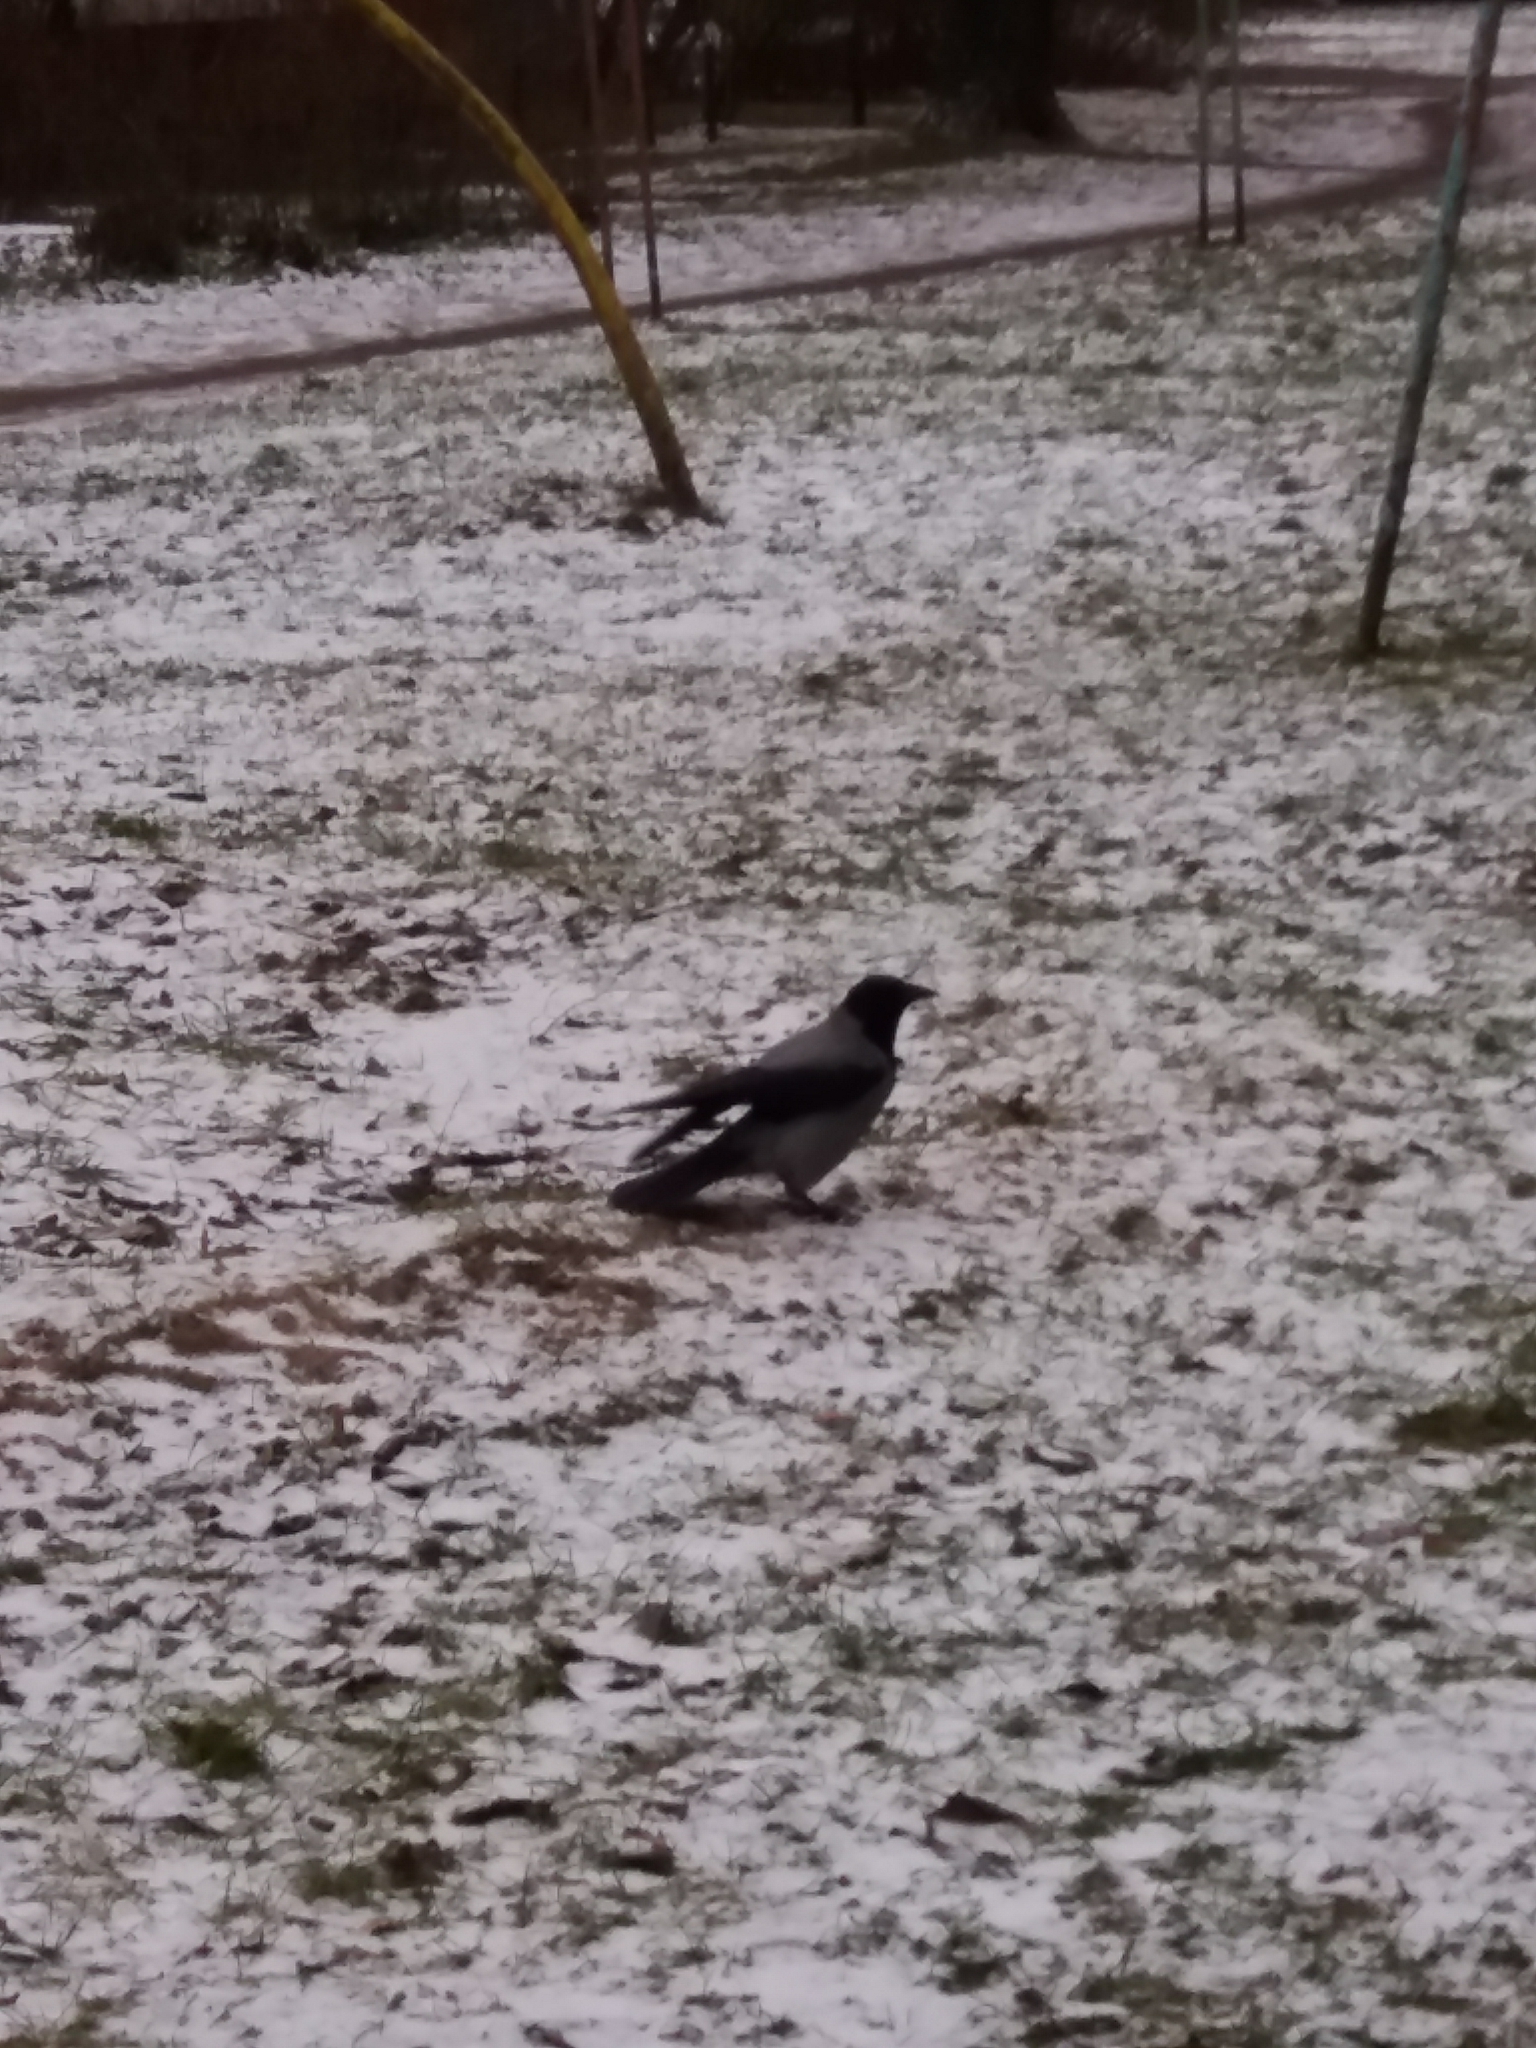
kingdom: Animalia
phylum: Chordata
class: Aves
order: Passeriformes
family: Corvidae
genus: Corvus
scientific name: Corvus cornix
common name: Hooded crow
